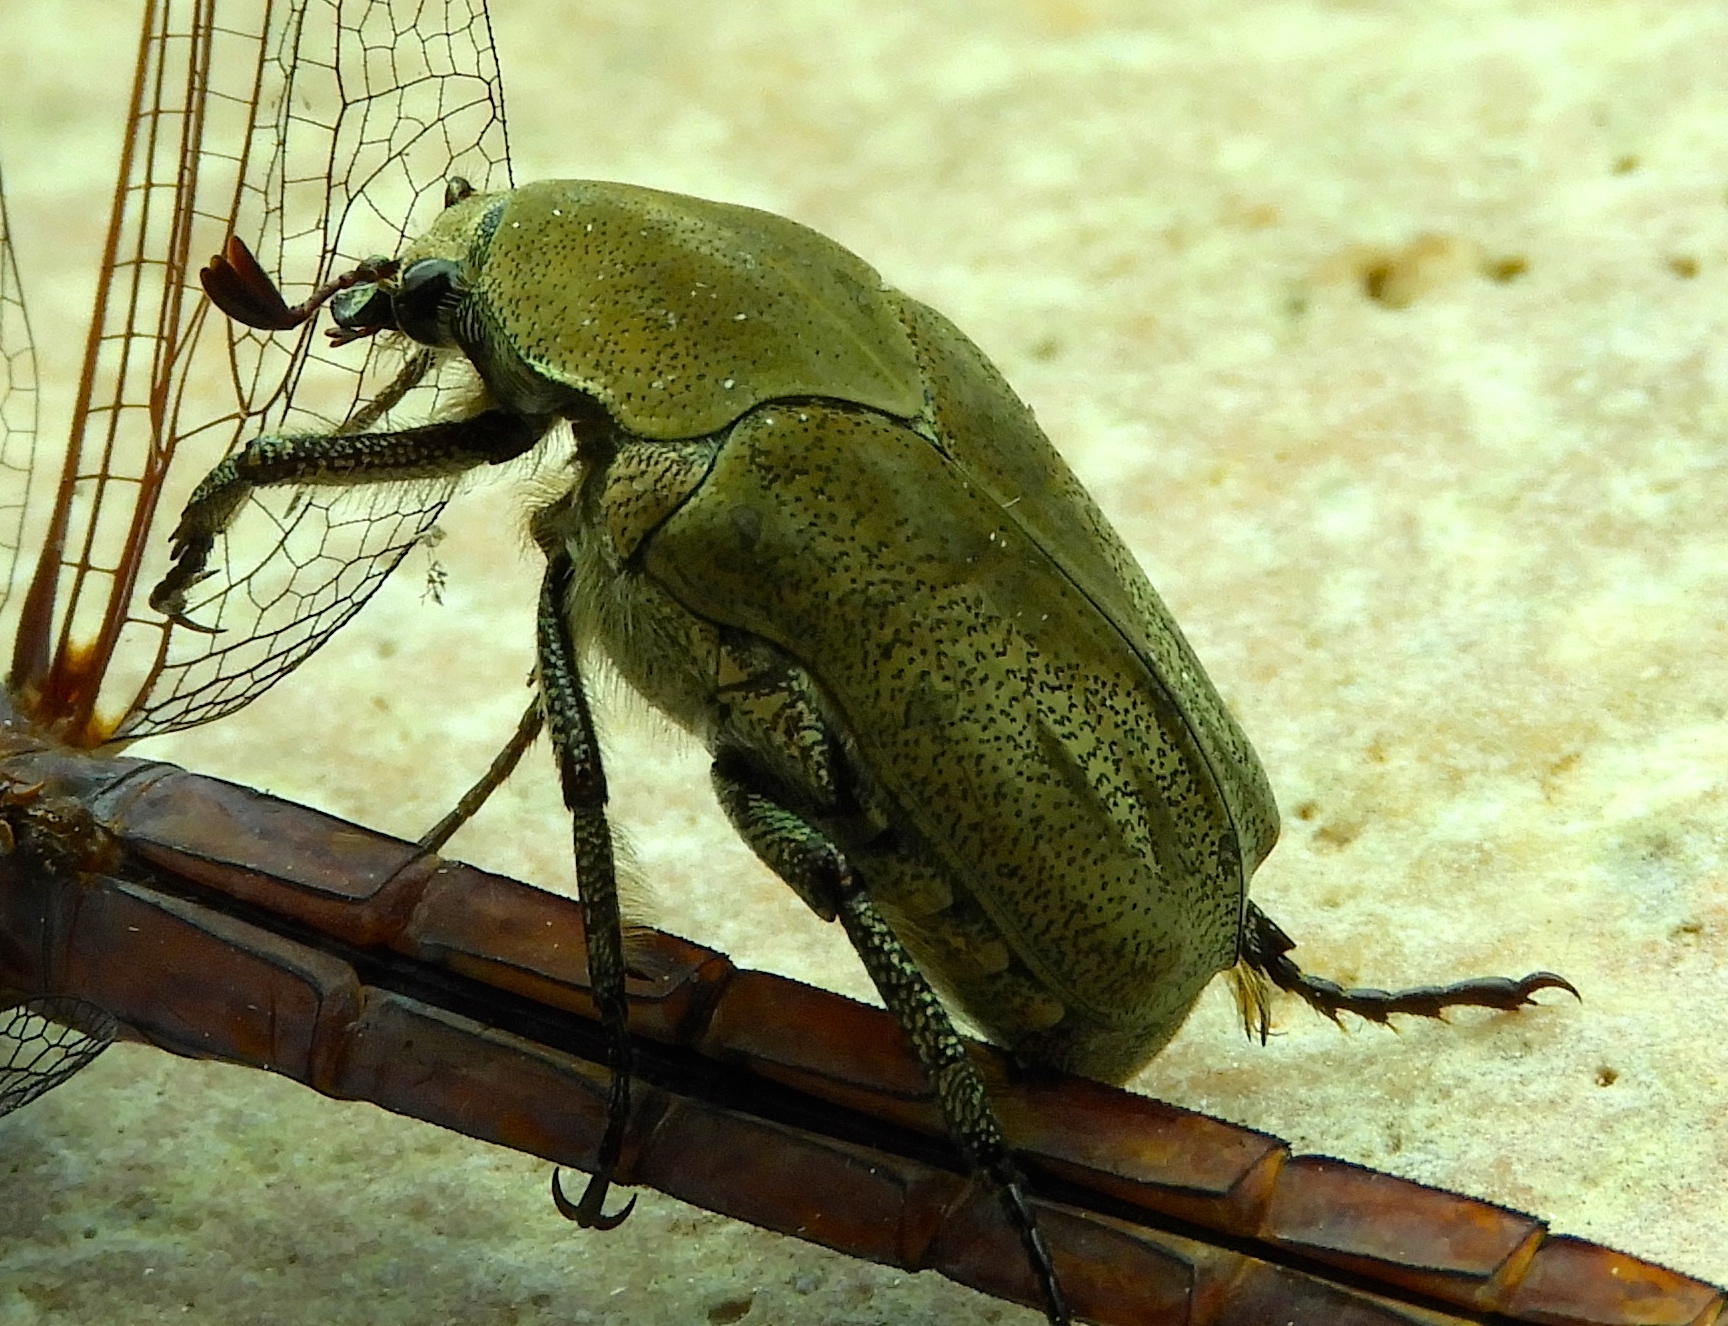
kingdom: Animalia
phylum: Arthropoda
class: Insecta
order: Coleoptera
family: Scarabaeidae
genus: Hologymnetis
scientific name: Hologymnetis margaritis
